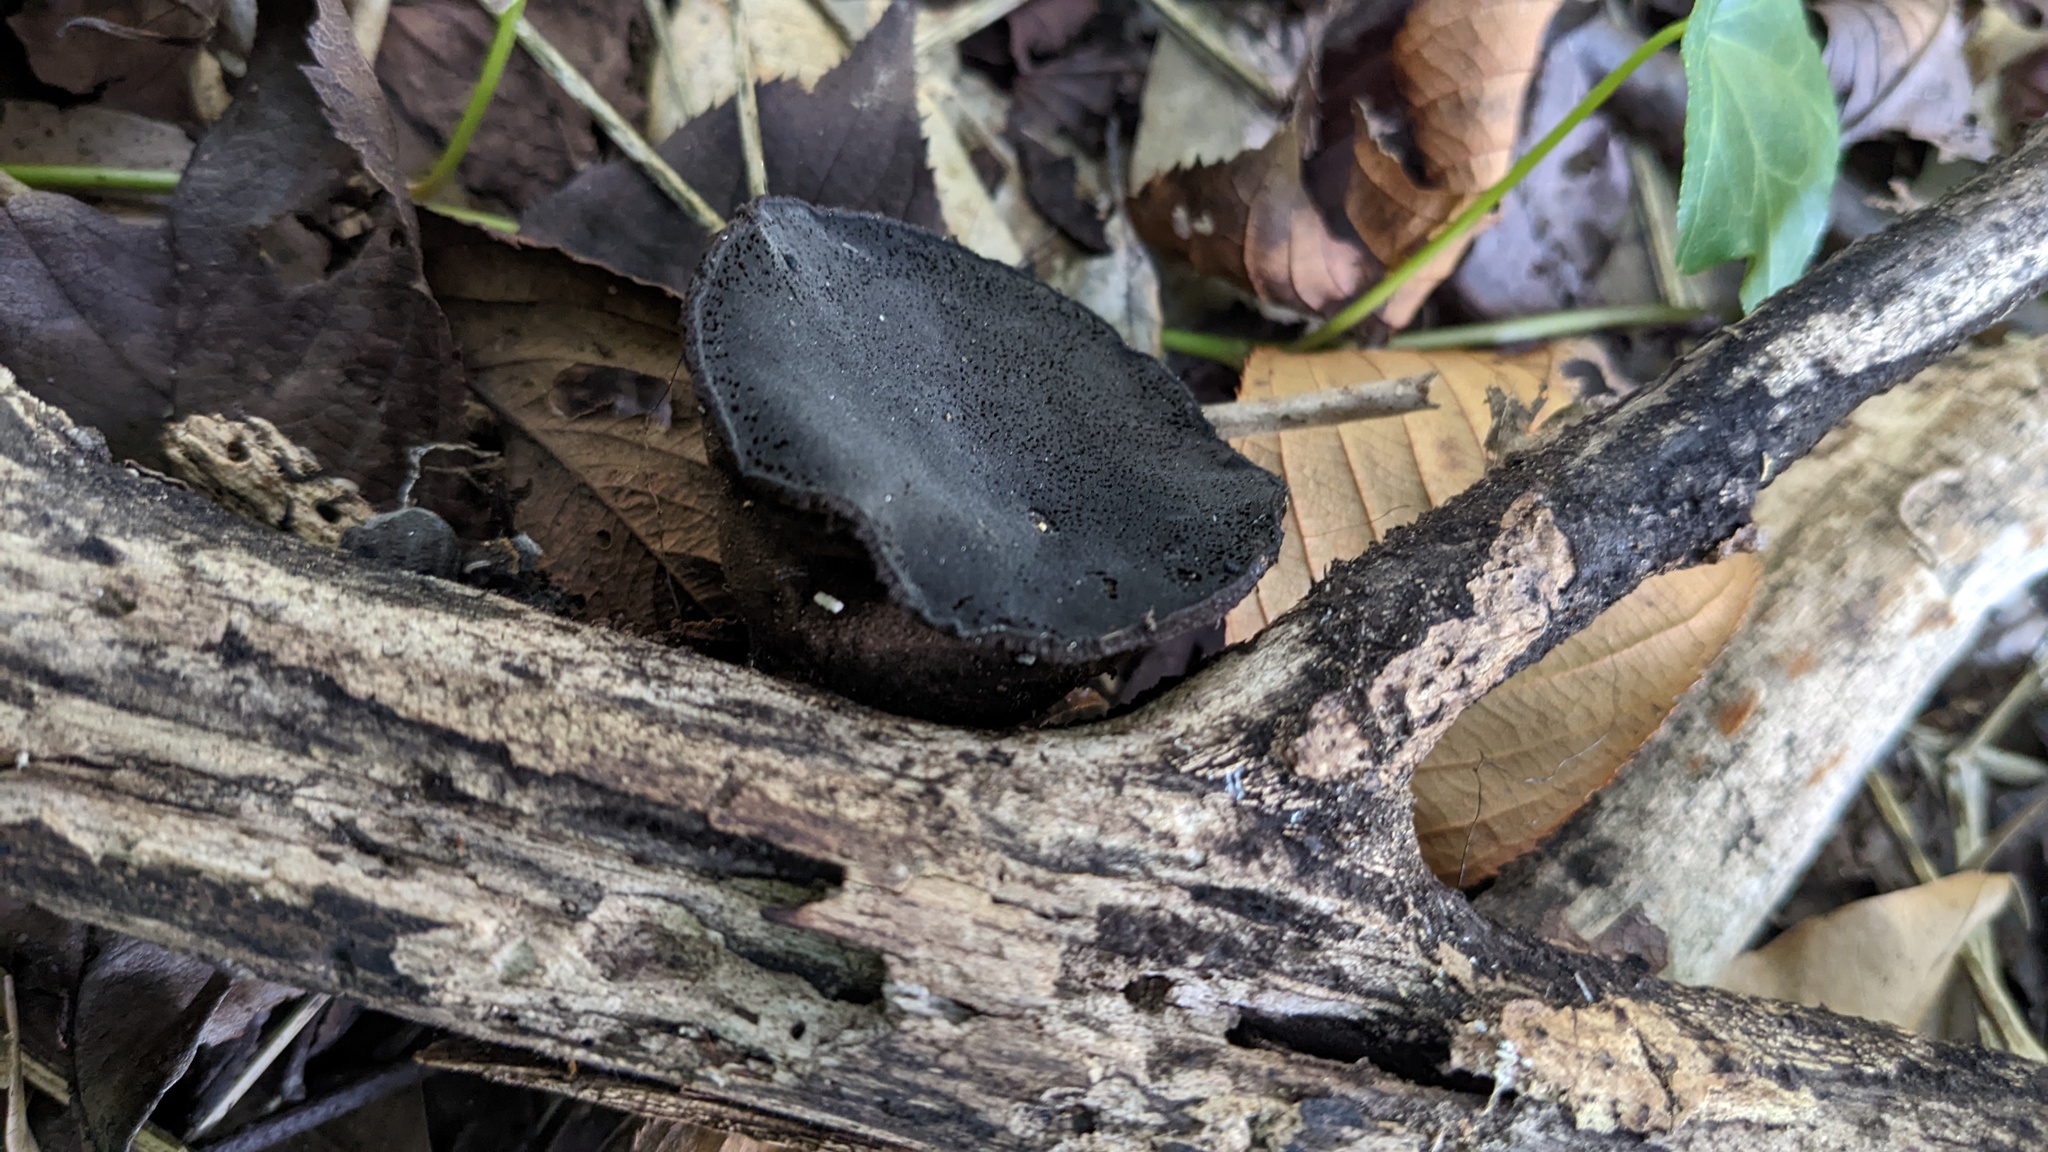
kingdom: Fungi
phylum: Ascomycota
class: Pezizomycetes
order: Pezizales
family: Pyronemataceae
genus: Trichaleurina
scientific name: Trichaleurina tenuispora
